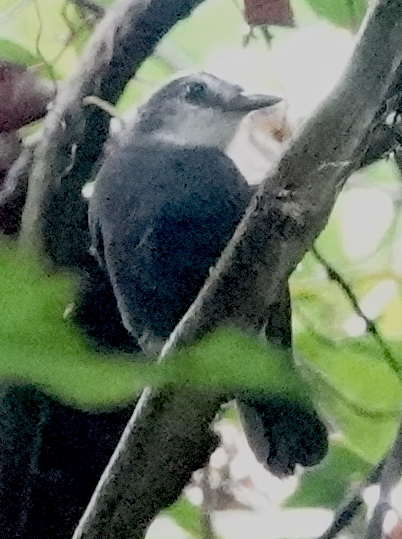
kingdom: Animalia
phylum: Chordata
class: Aves
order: Passeriformes
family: Thamnophilidae
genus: Gymnopithys
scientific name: Gymnopithys lunulatus
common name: Lunulated antbird
